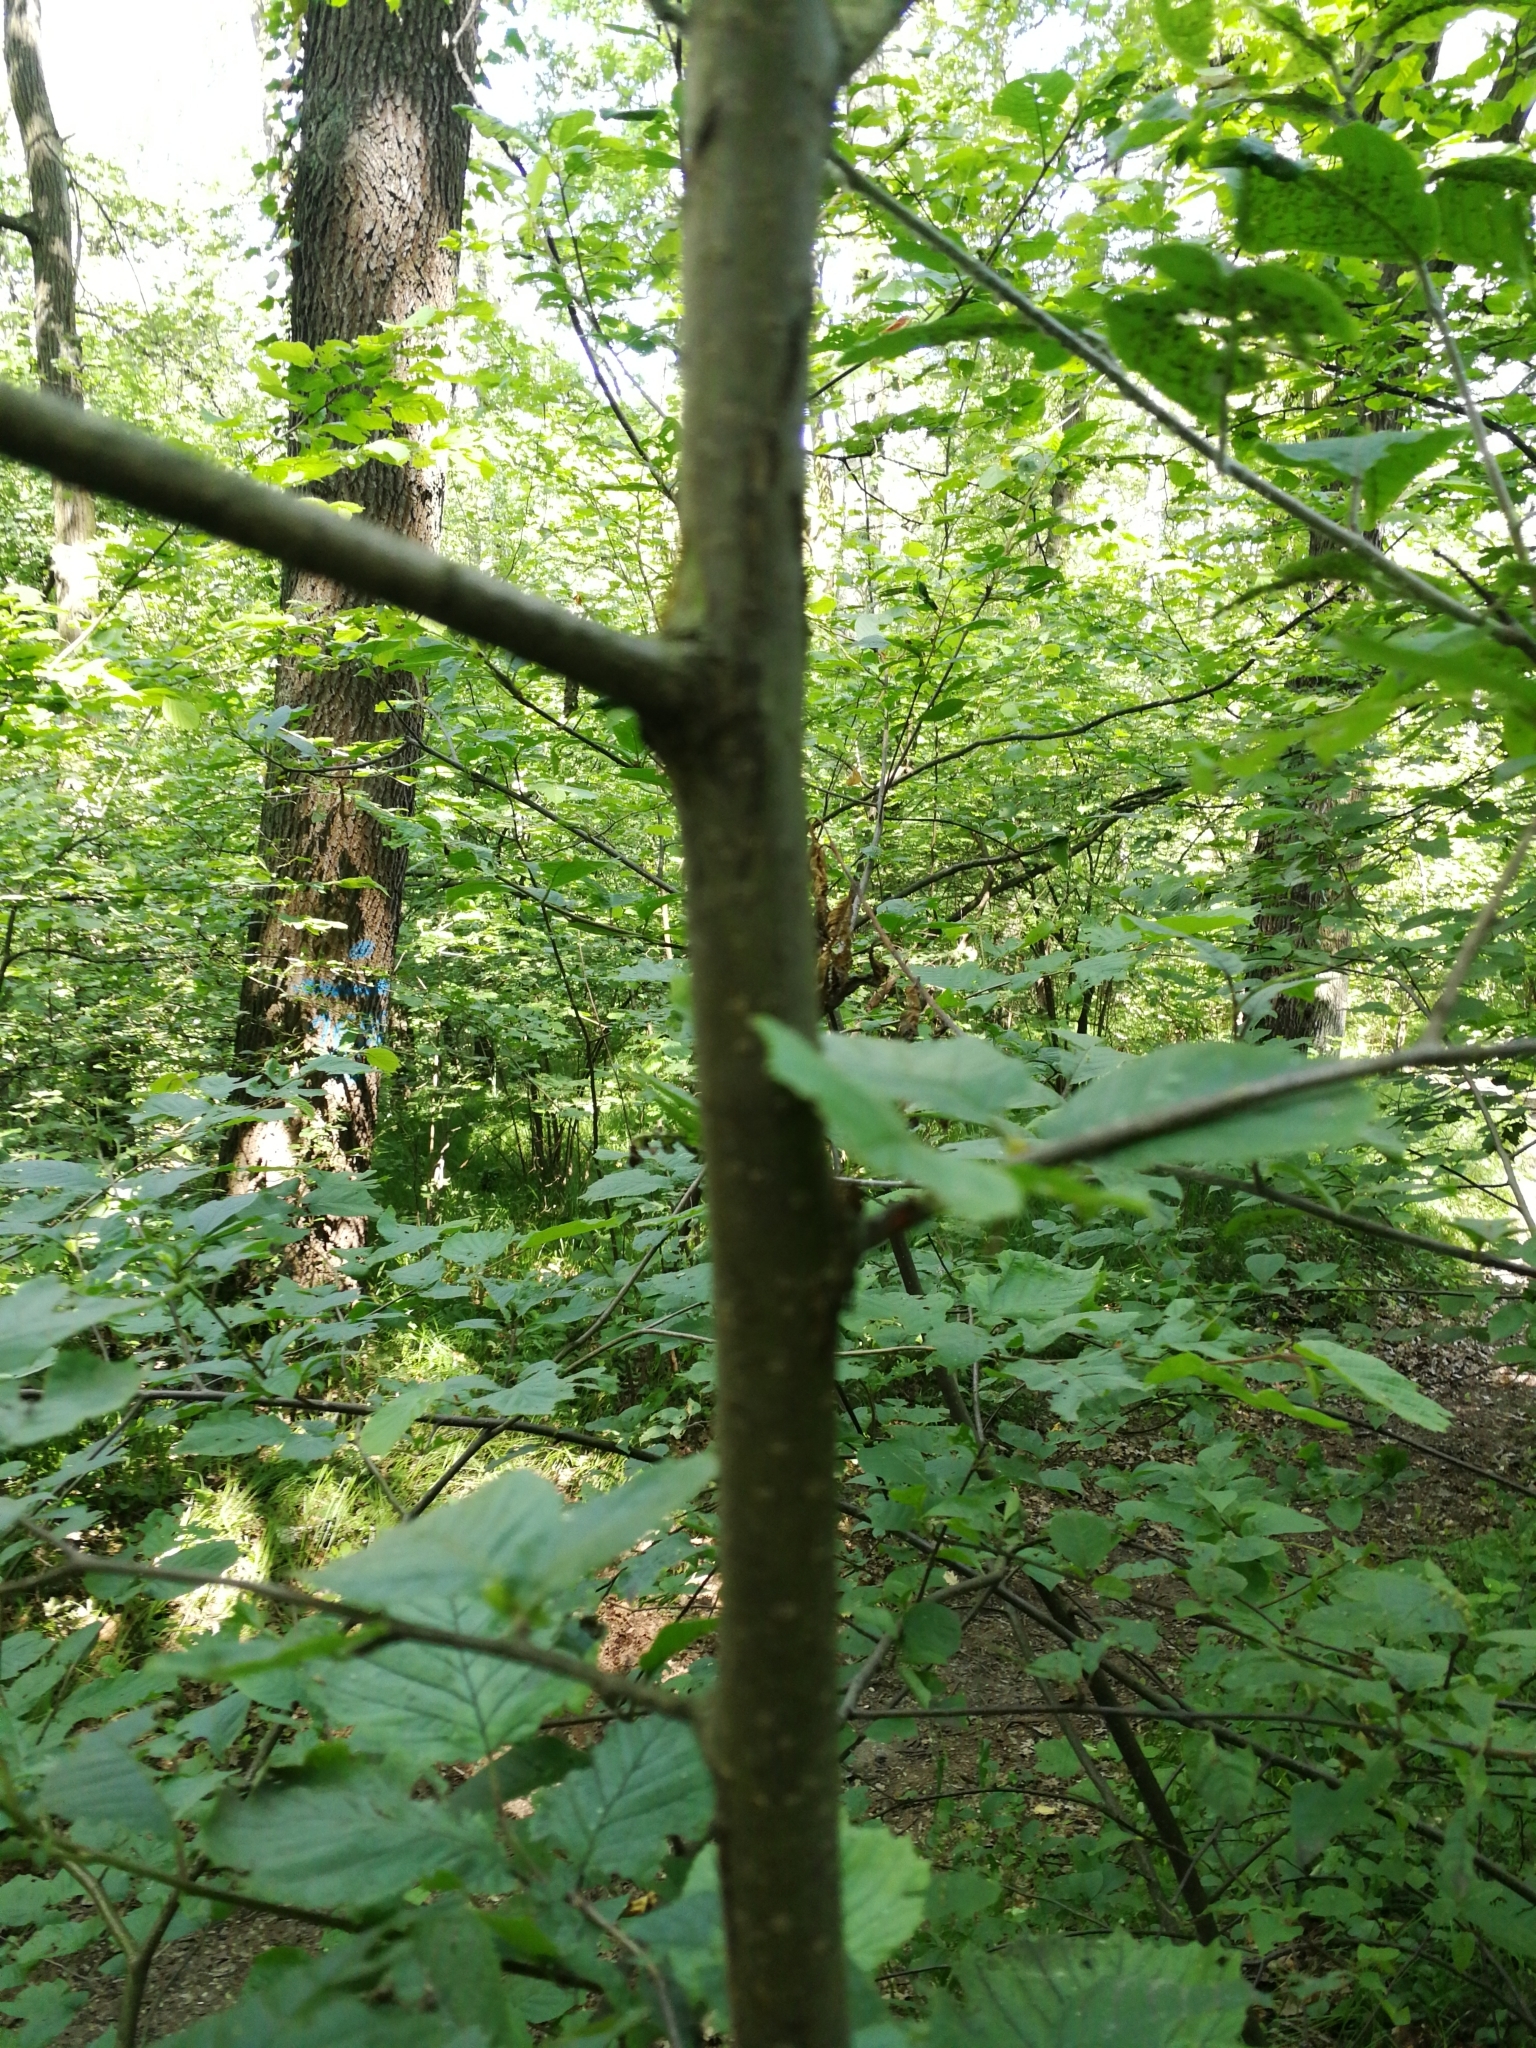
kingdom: Plantae
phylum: Tracheophyta
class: Magnoliopsida
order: Fagales
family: Betulaceae
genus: Corylus
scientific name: Corylus avellana
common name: European hazel
